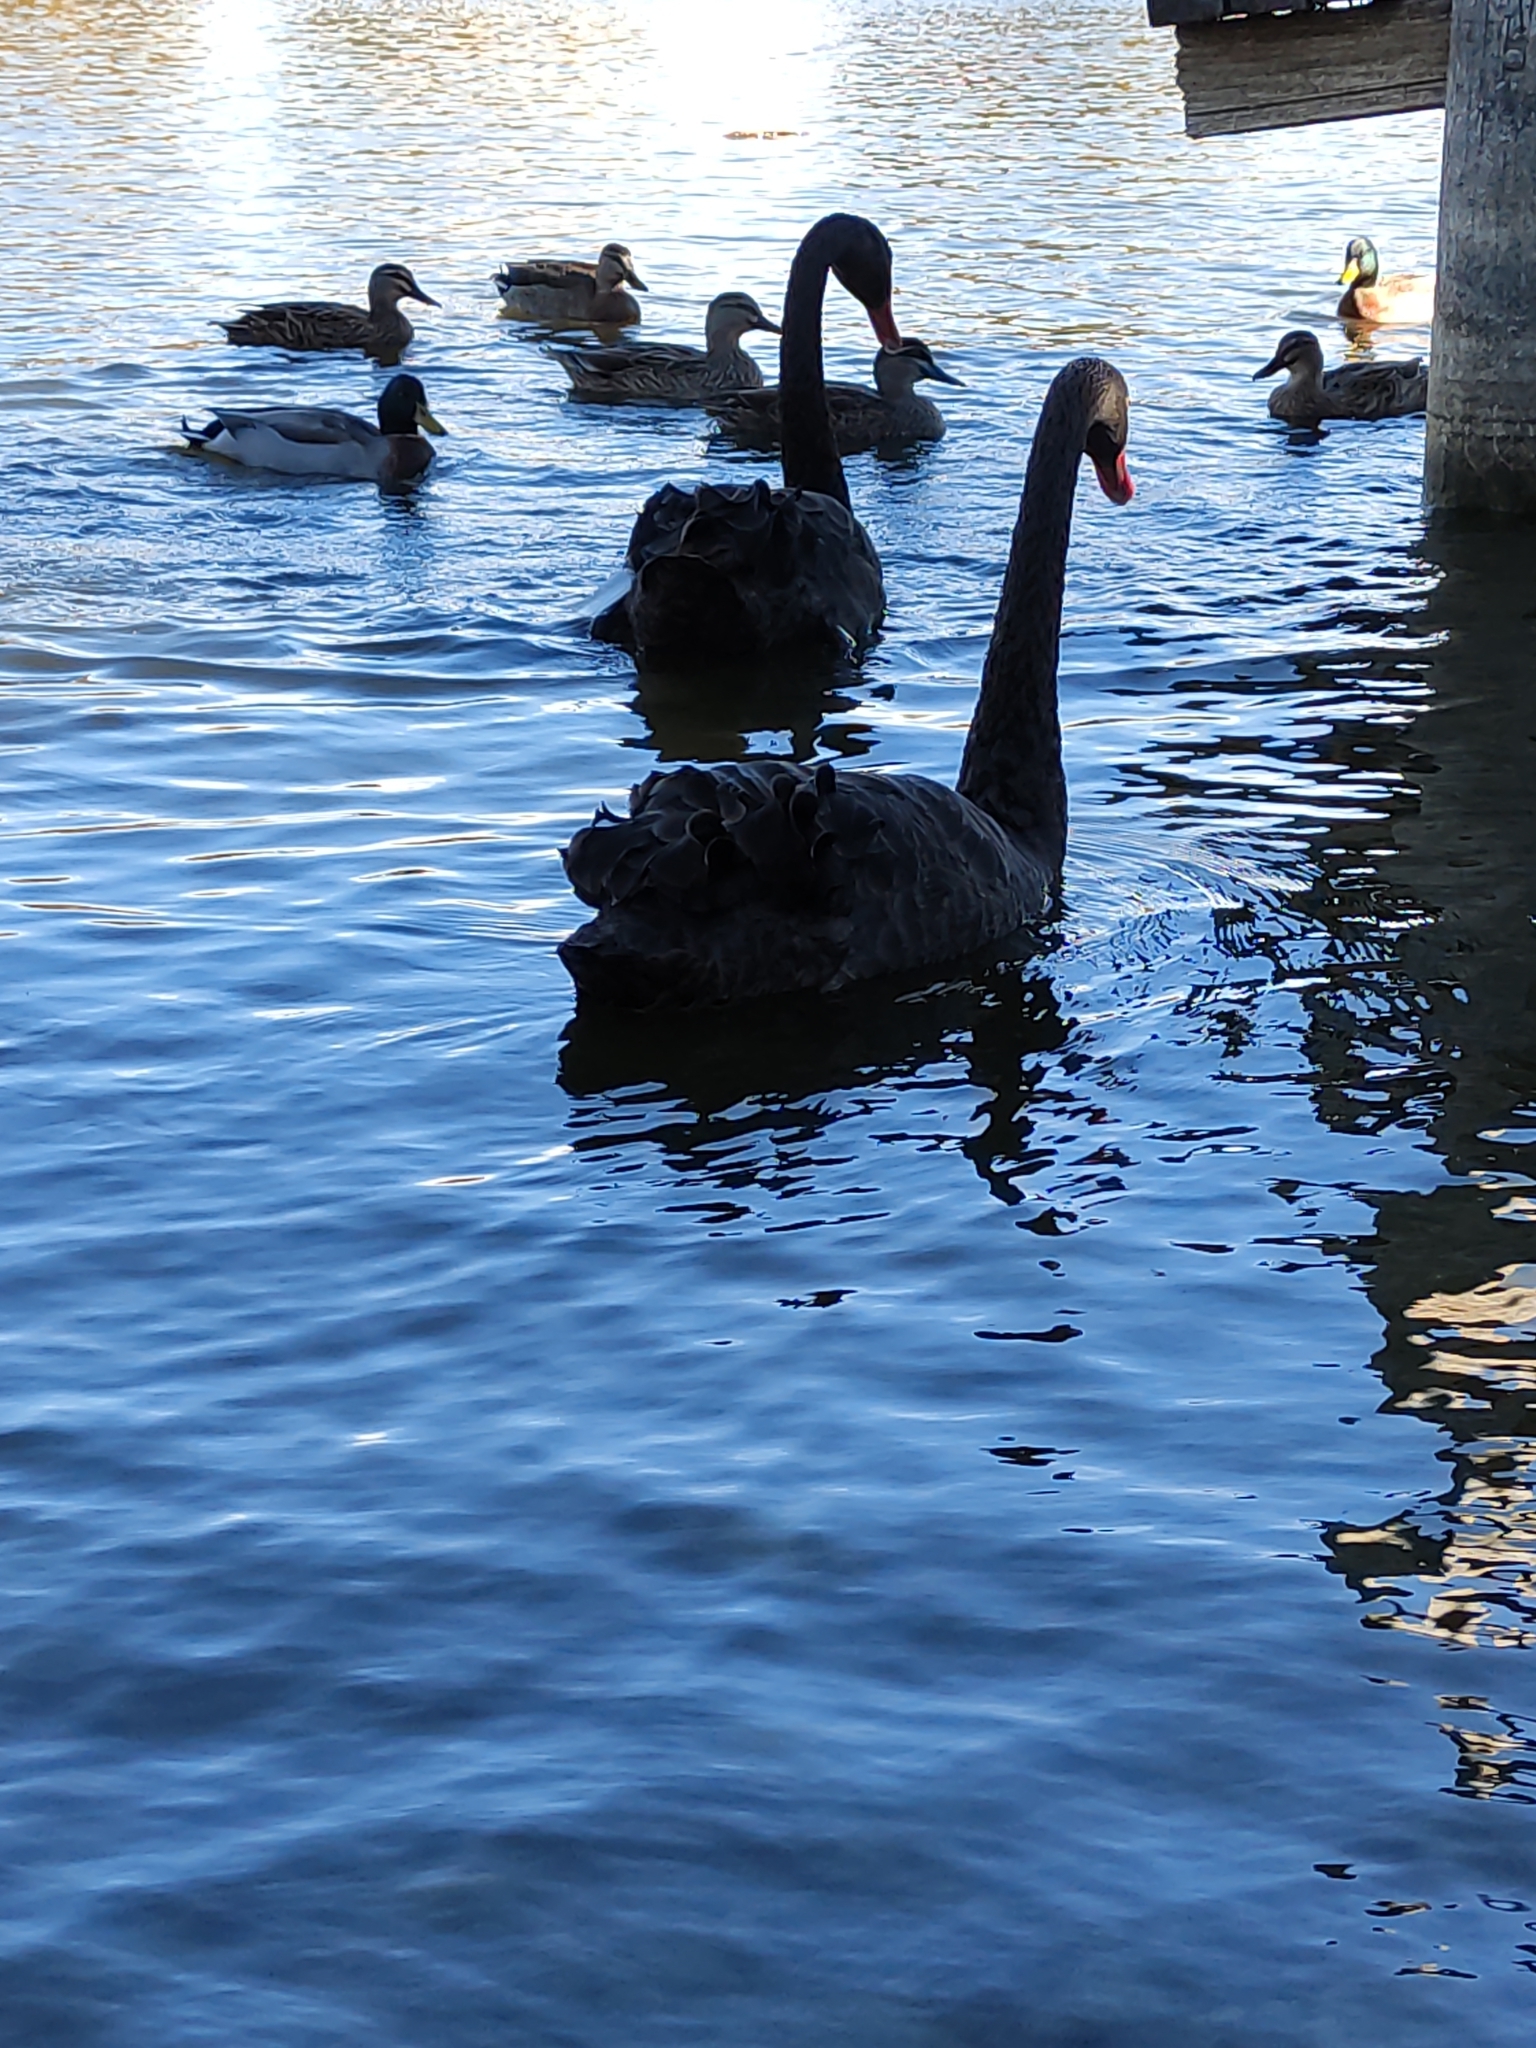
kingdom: Animalia
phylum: Chordata
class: Aves
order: Anseriformes
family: Anatidae
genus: Cygnus
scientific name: Cygnus atratus
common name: Black swan
